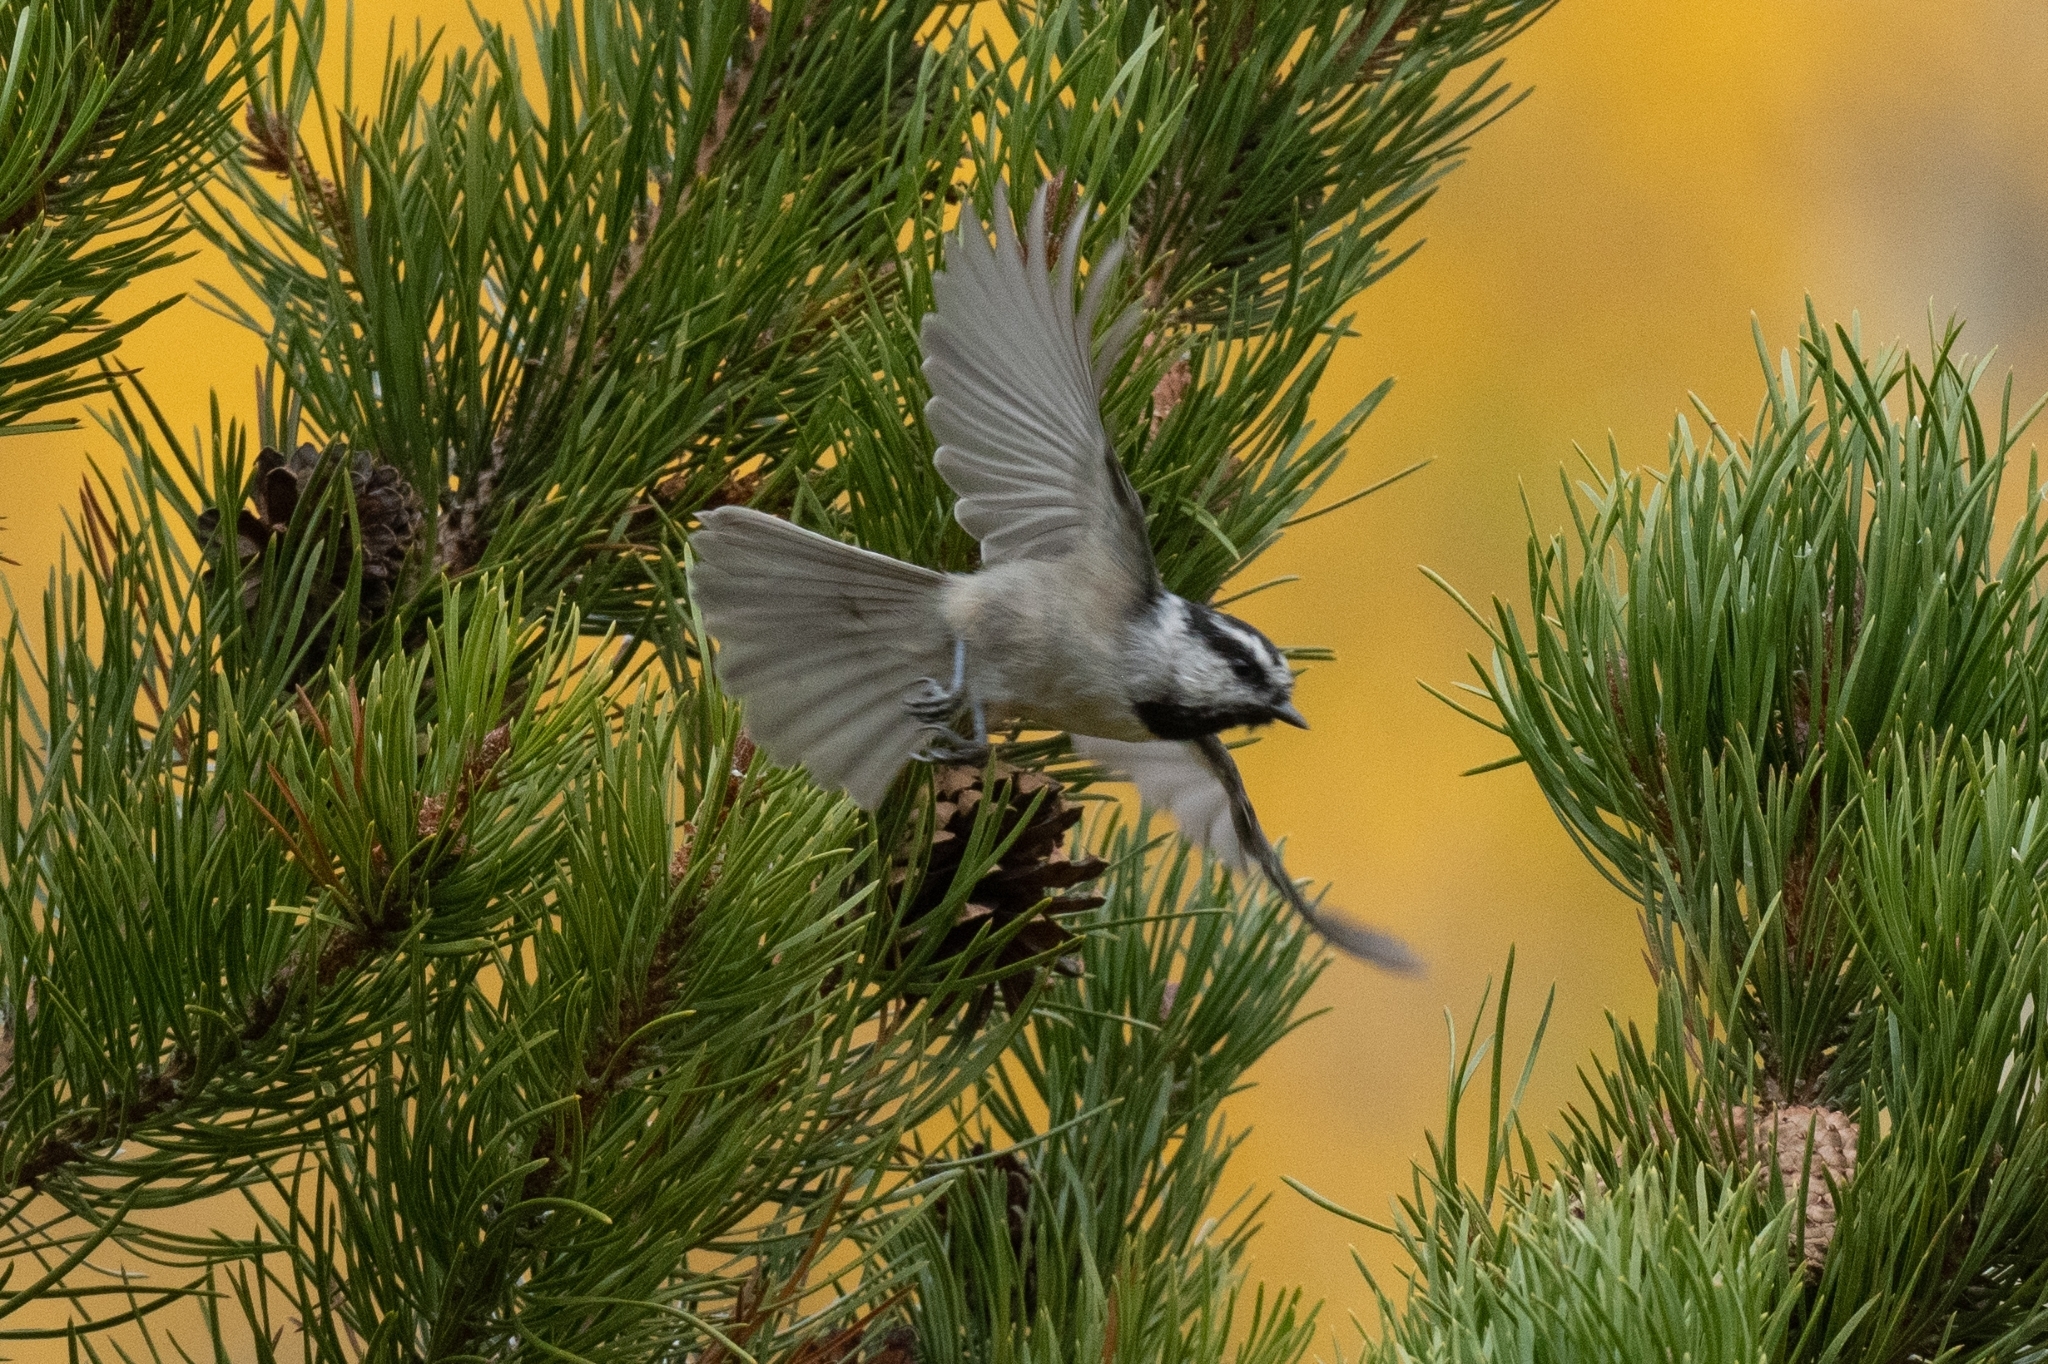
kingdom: Animalia
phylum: Chordata
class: Aves
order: Passeriformes
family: Paridae
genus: Poecile
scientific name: Poecile gambeli
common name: Mountain chickadee
